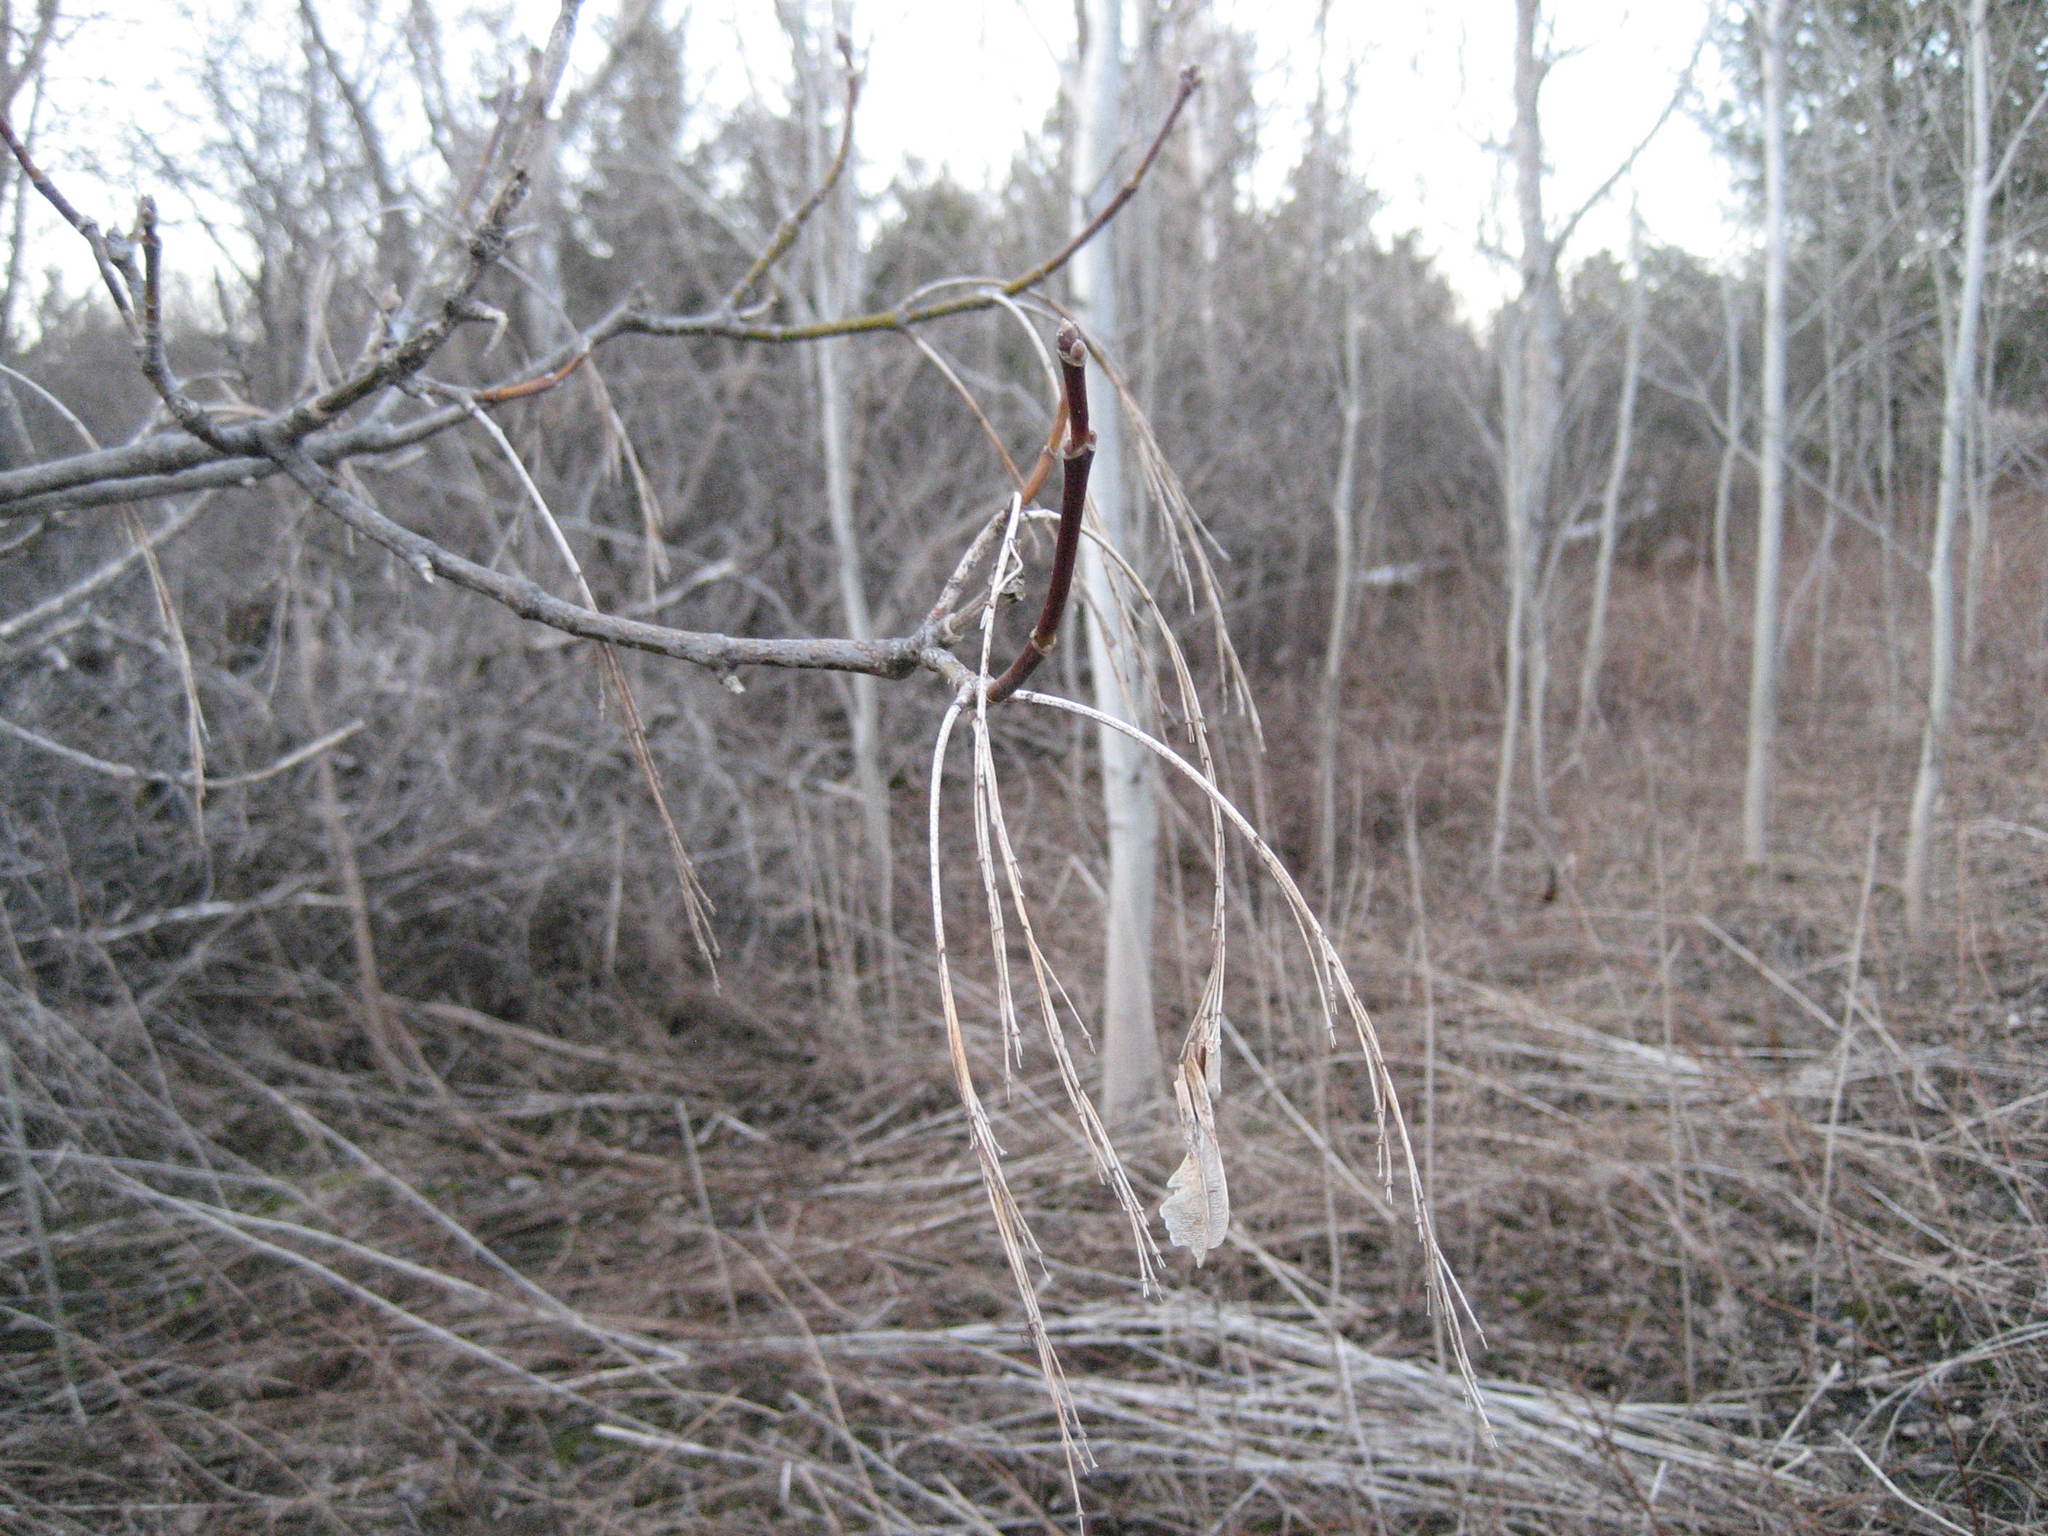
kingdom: Plantae
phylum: Tracheophyta
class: Magnoliopsida
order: Sapindales
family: Sapindaceae
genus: Acer
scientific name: Acer negundo
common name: Ashleaf maple
